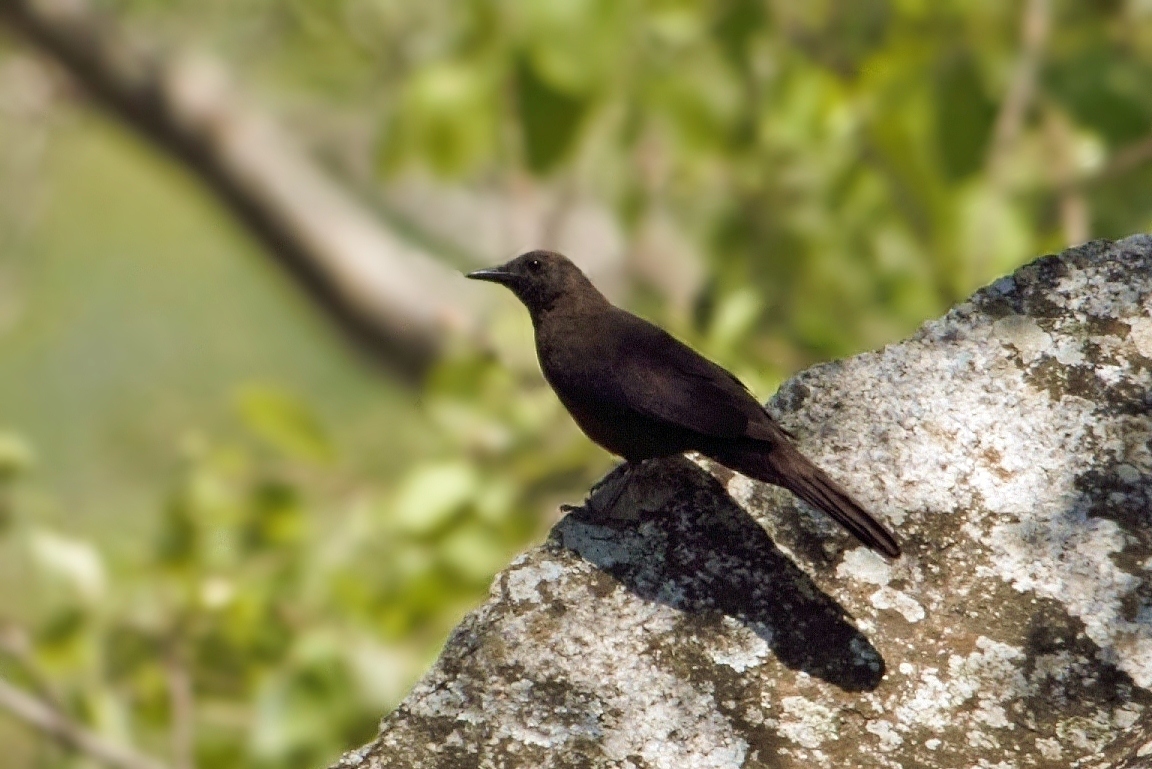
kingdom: Animalia
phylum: Chordata
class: Aves
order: Passeriformes
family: Muscicapidae
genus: Pinarornis
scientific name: Pinarornis plumosus
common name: Boulder chat
